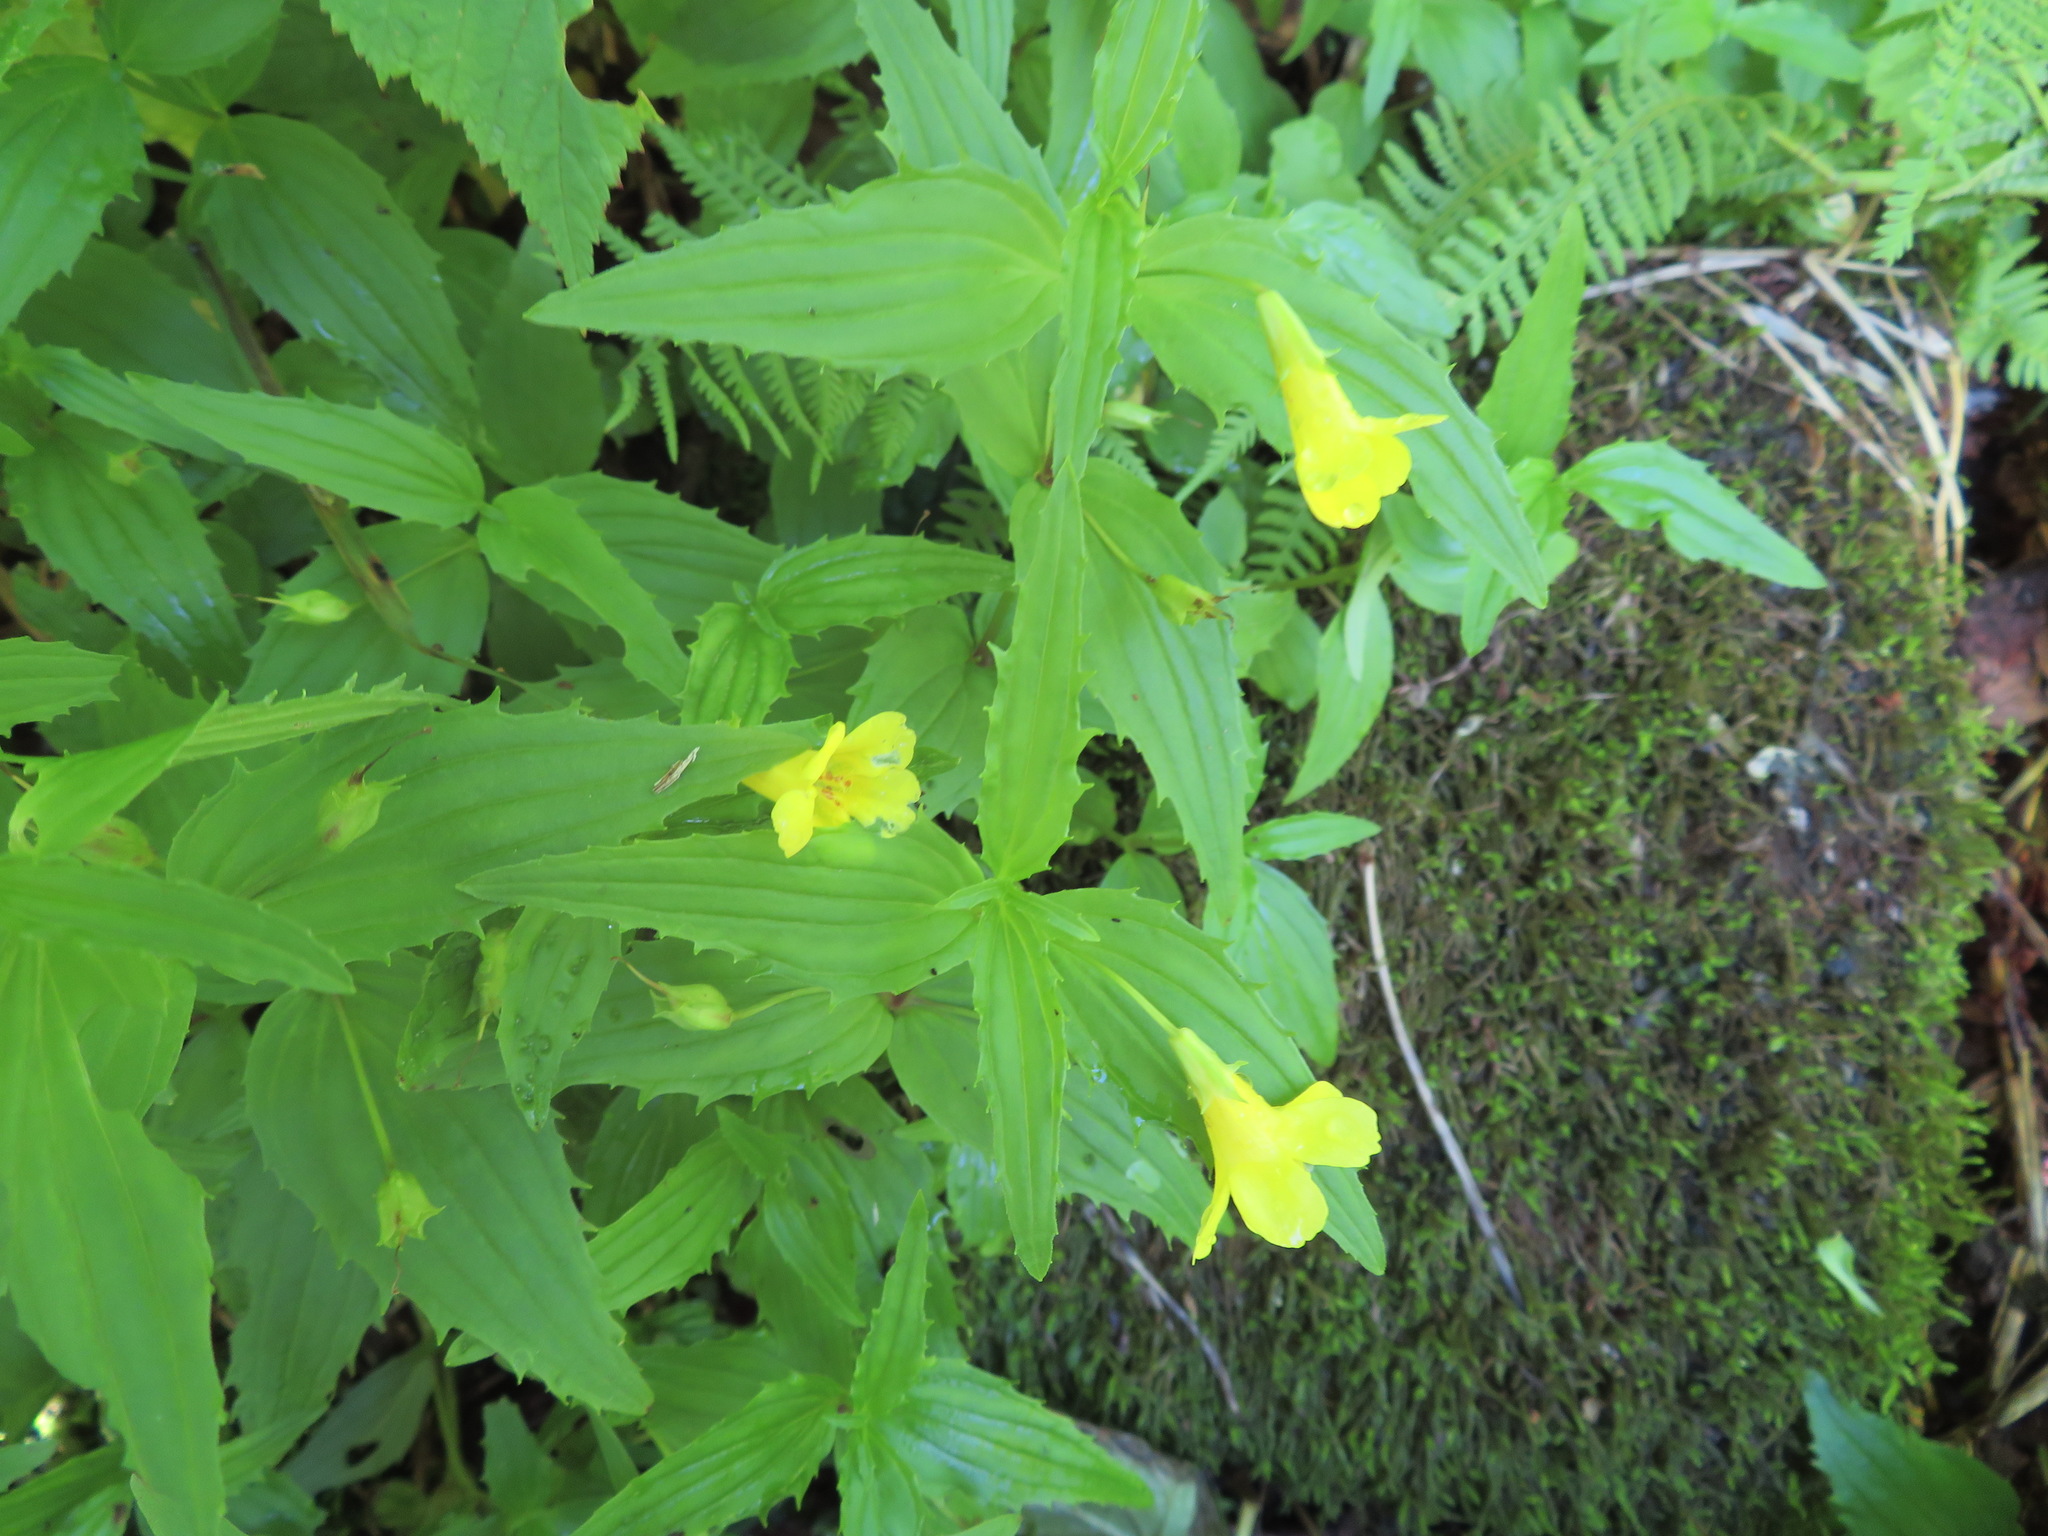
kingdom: Plantae
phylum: Tracheophyta
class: Magnoliopsida
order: Lamiales
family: Phrymaceae
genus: Erythranthe
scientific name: Erythranthe sessilifolia
